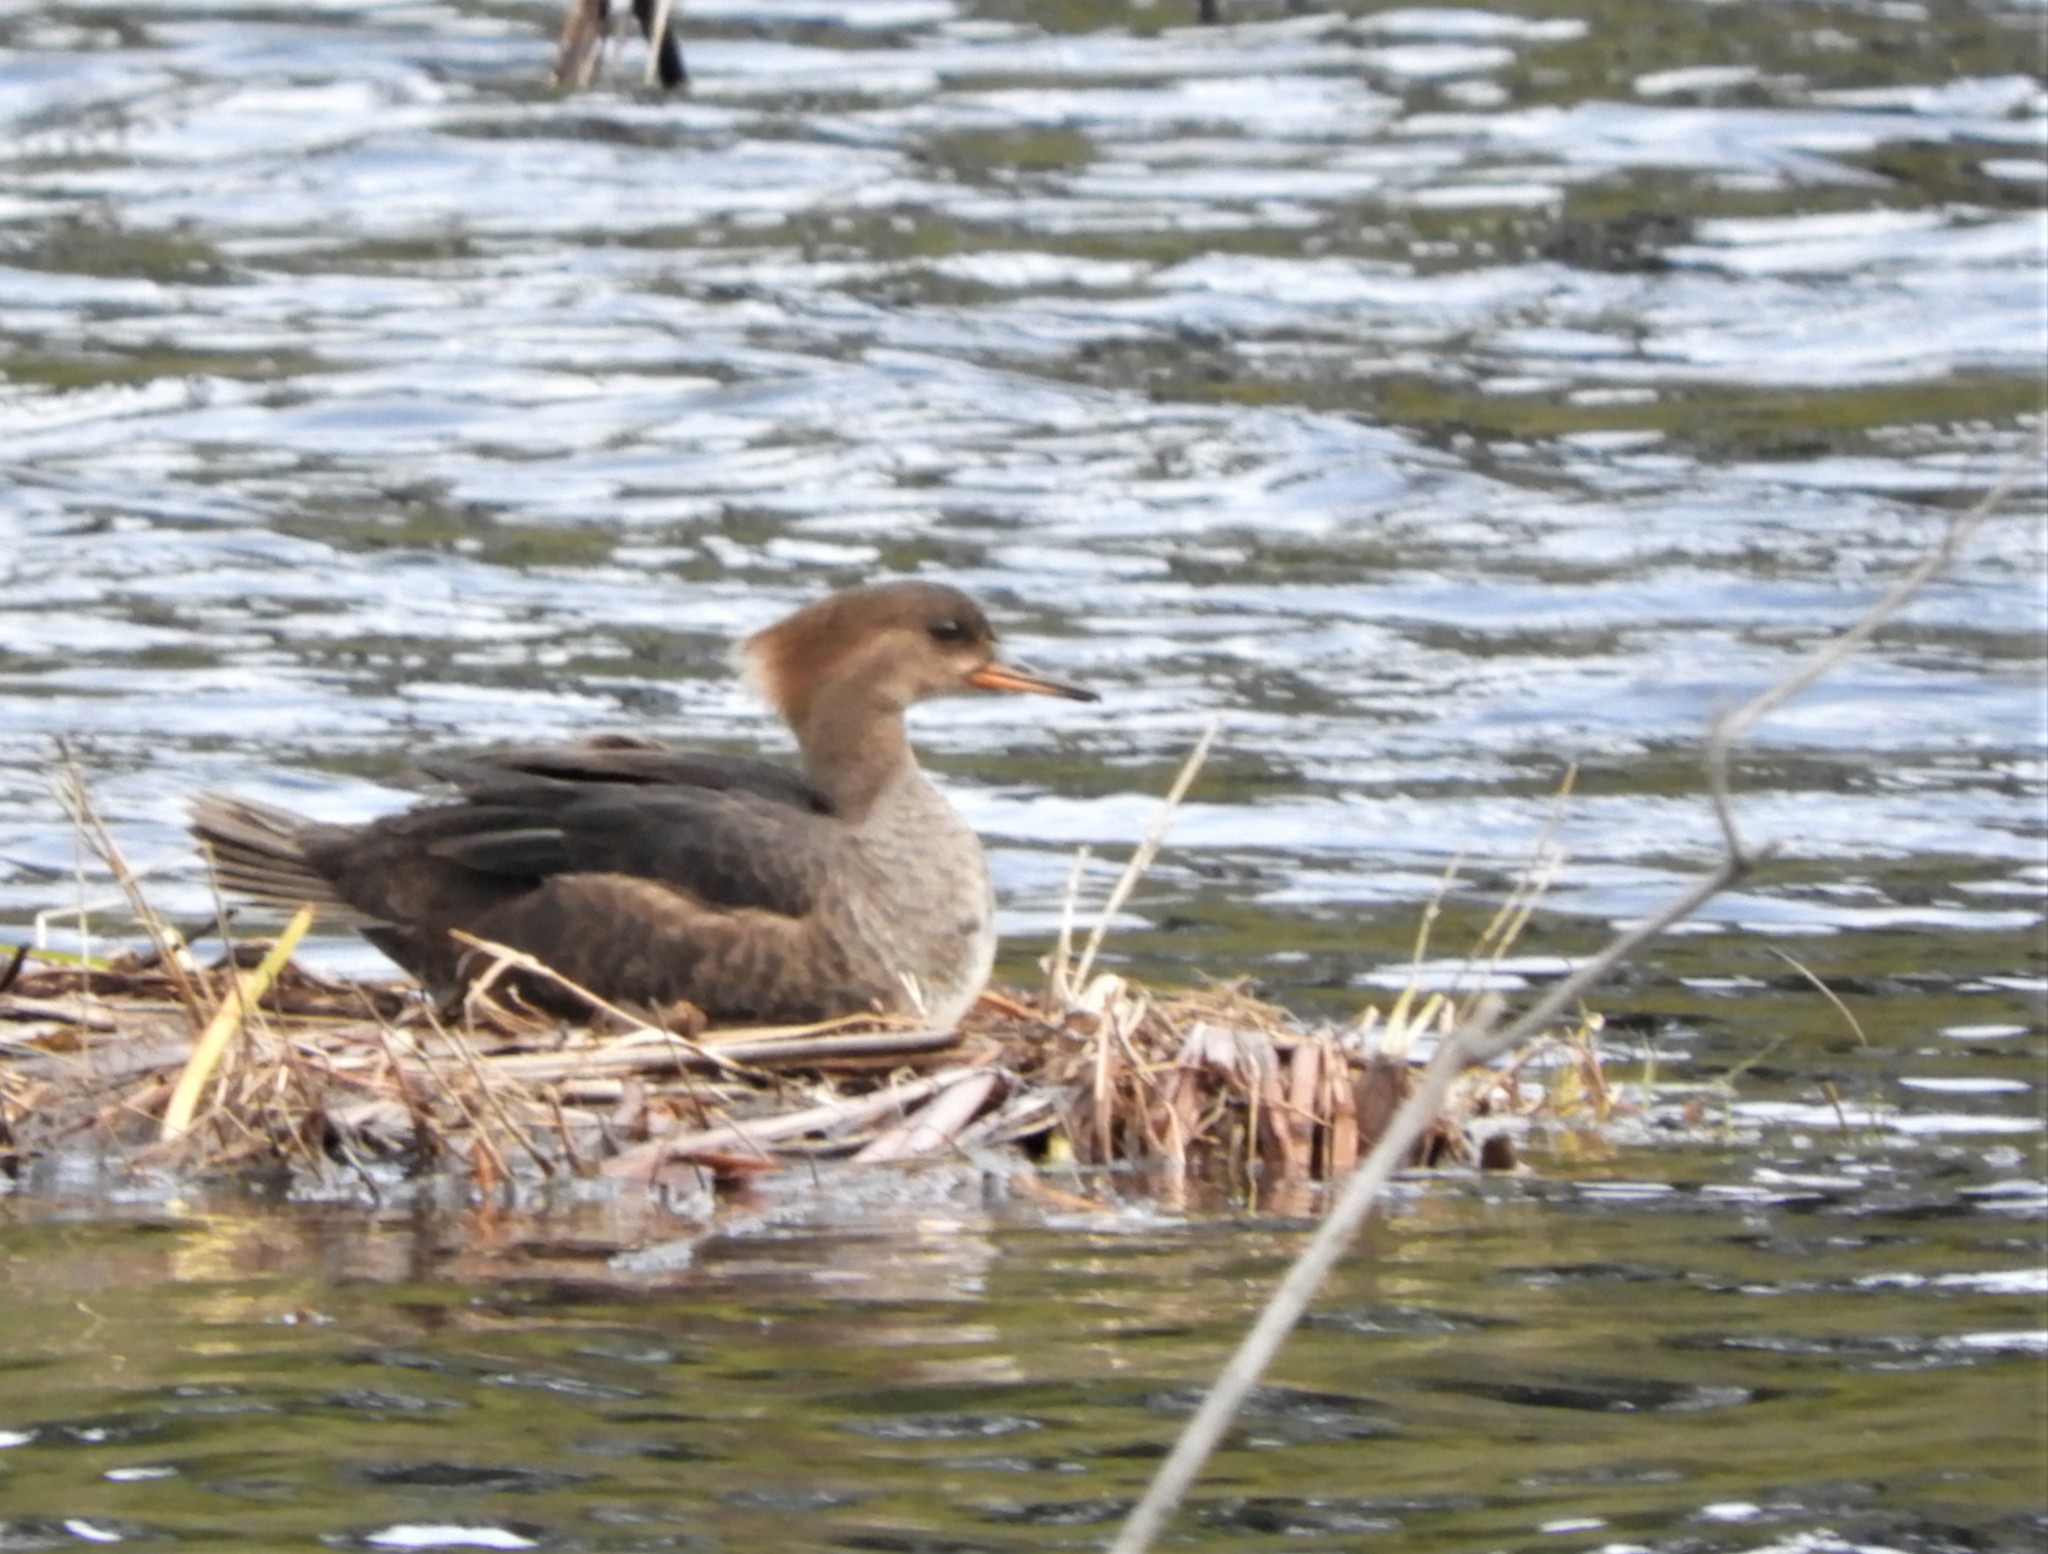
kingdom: Animalia
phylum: Chordata
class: Aves
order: Anseriformes
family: Anatidae
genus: Lophodytes
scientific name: Lophodytes cucullatus
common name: Hooded merganser
